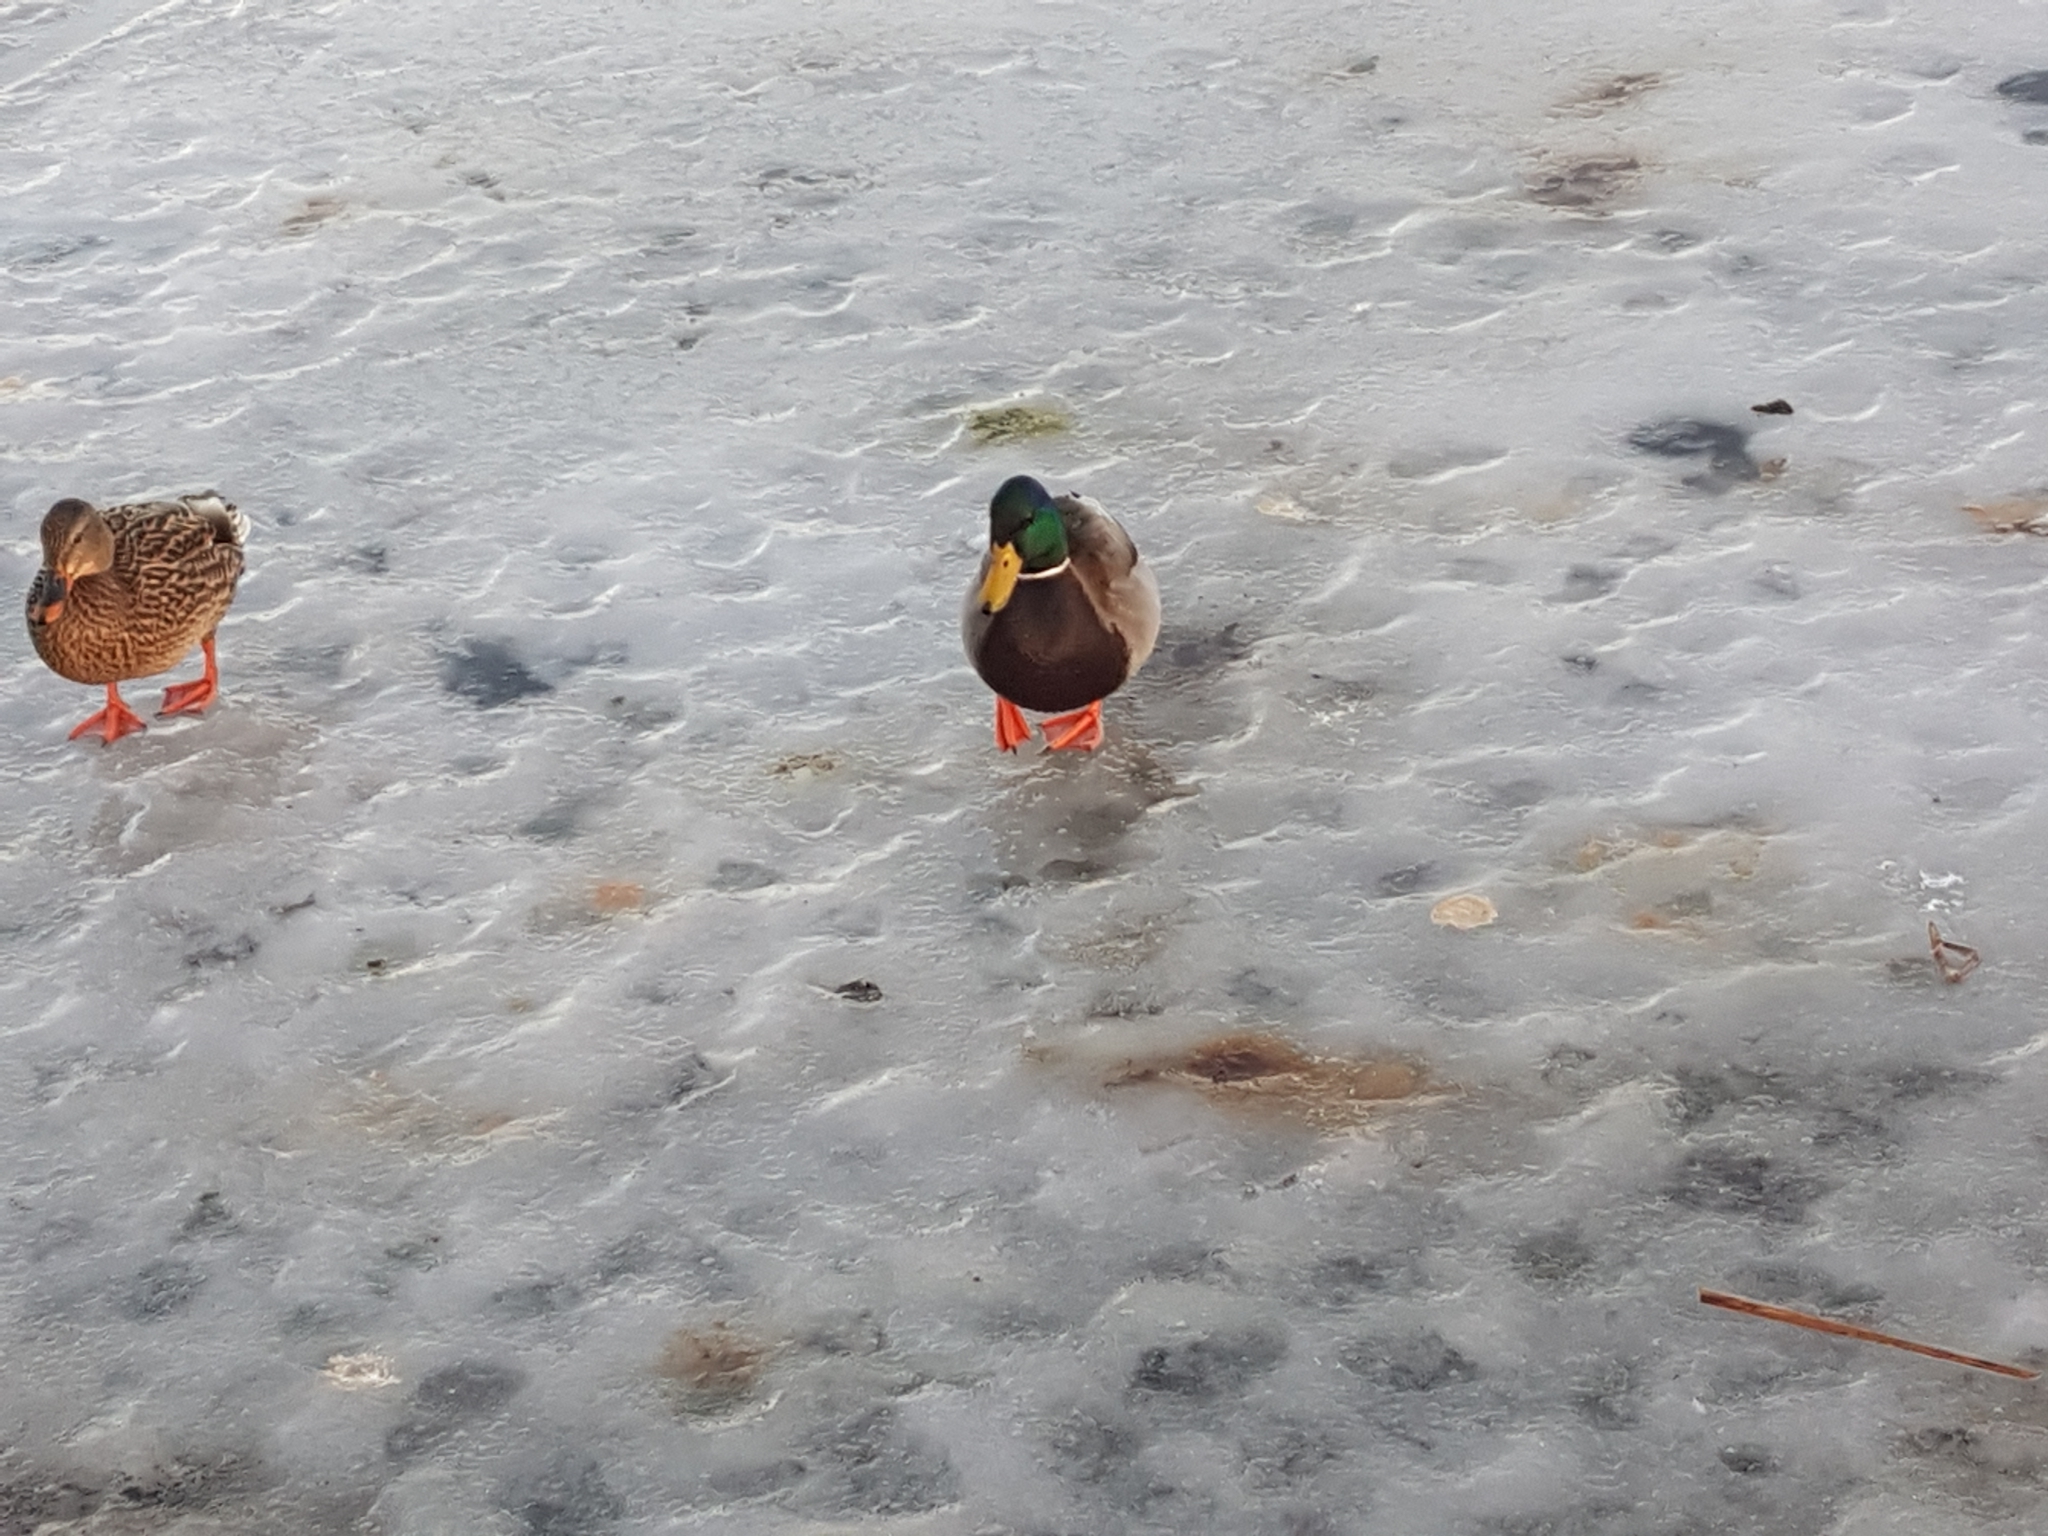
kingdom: Animalia
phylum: Chordata
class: Aves
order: Anseriformes
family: Anatidae
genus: Anas
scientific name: Anas platyrhynchos
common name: Mallard
